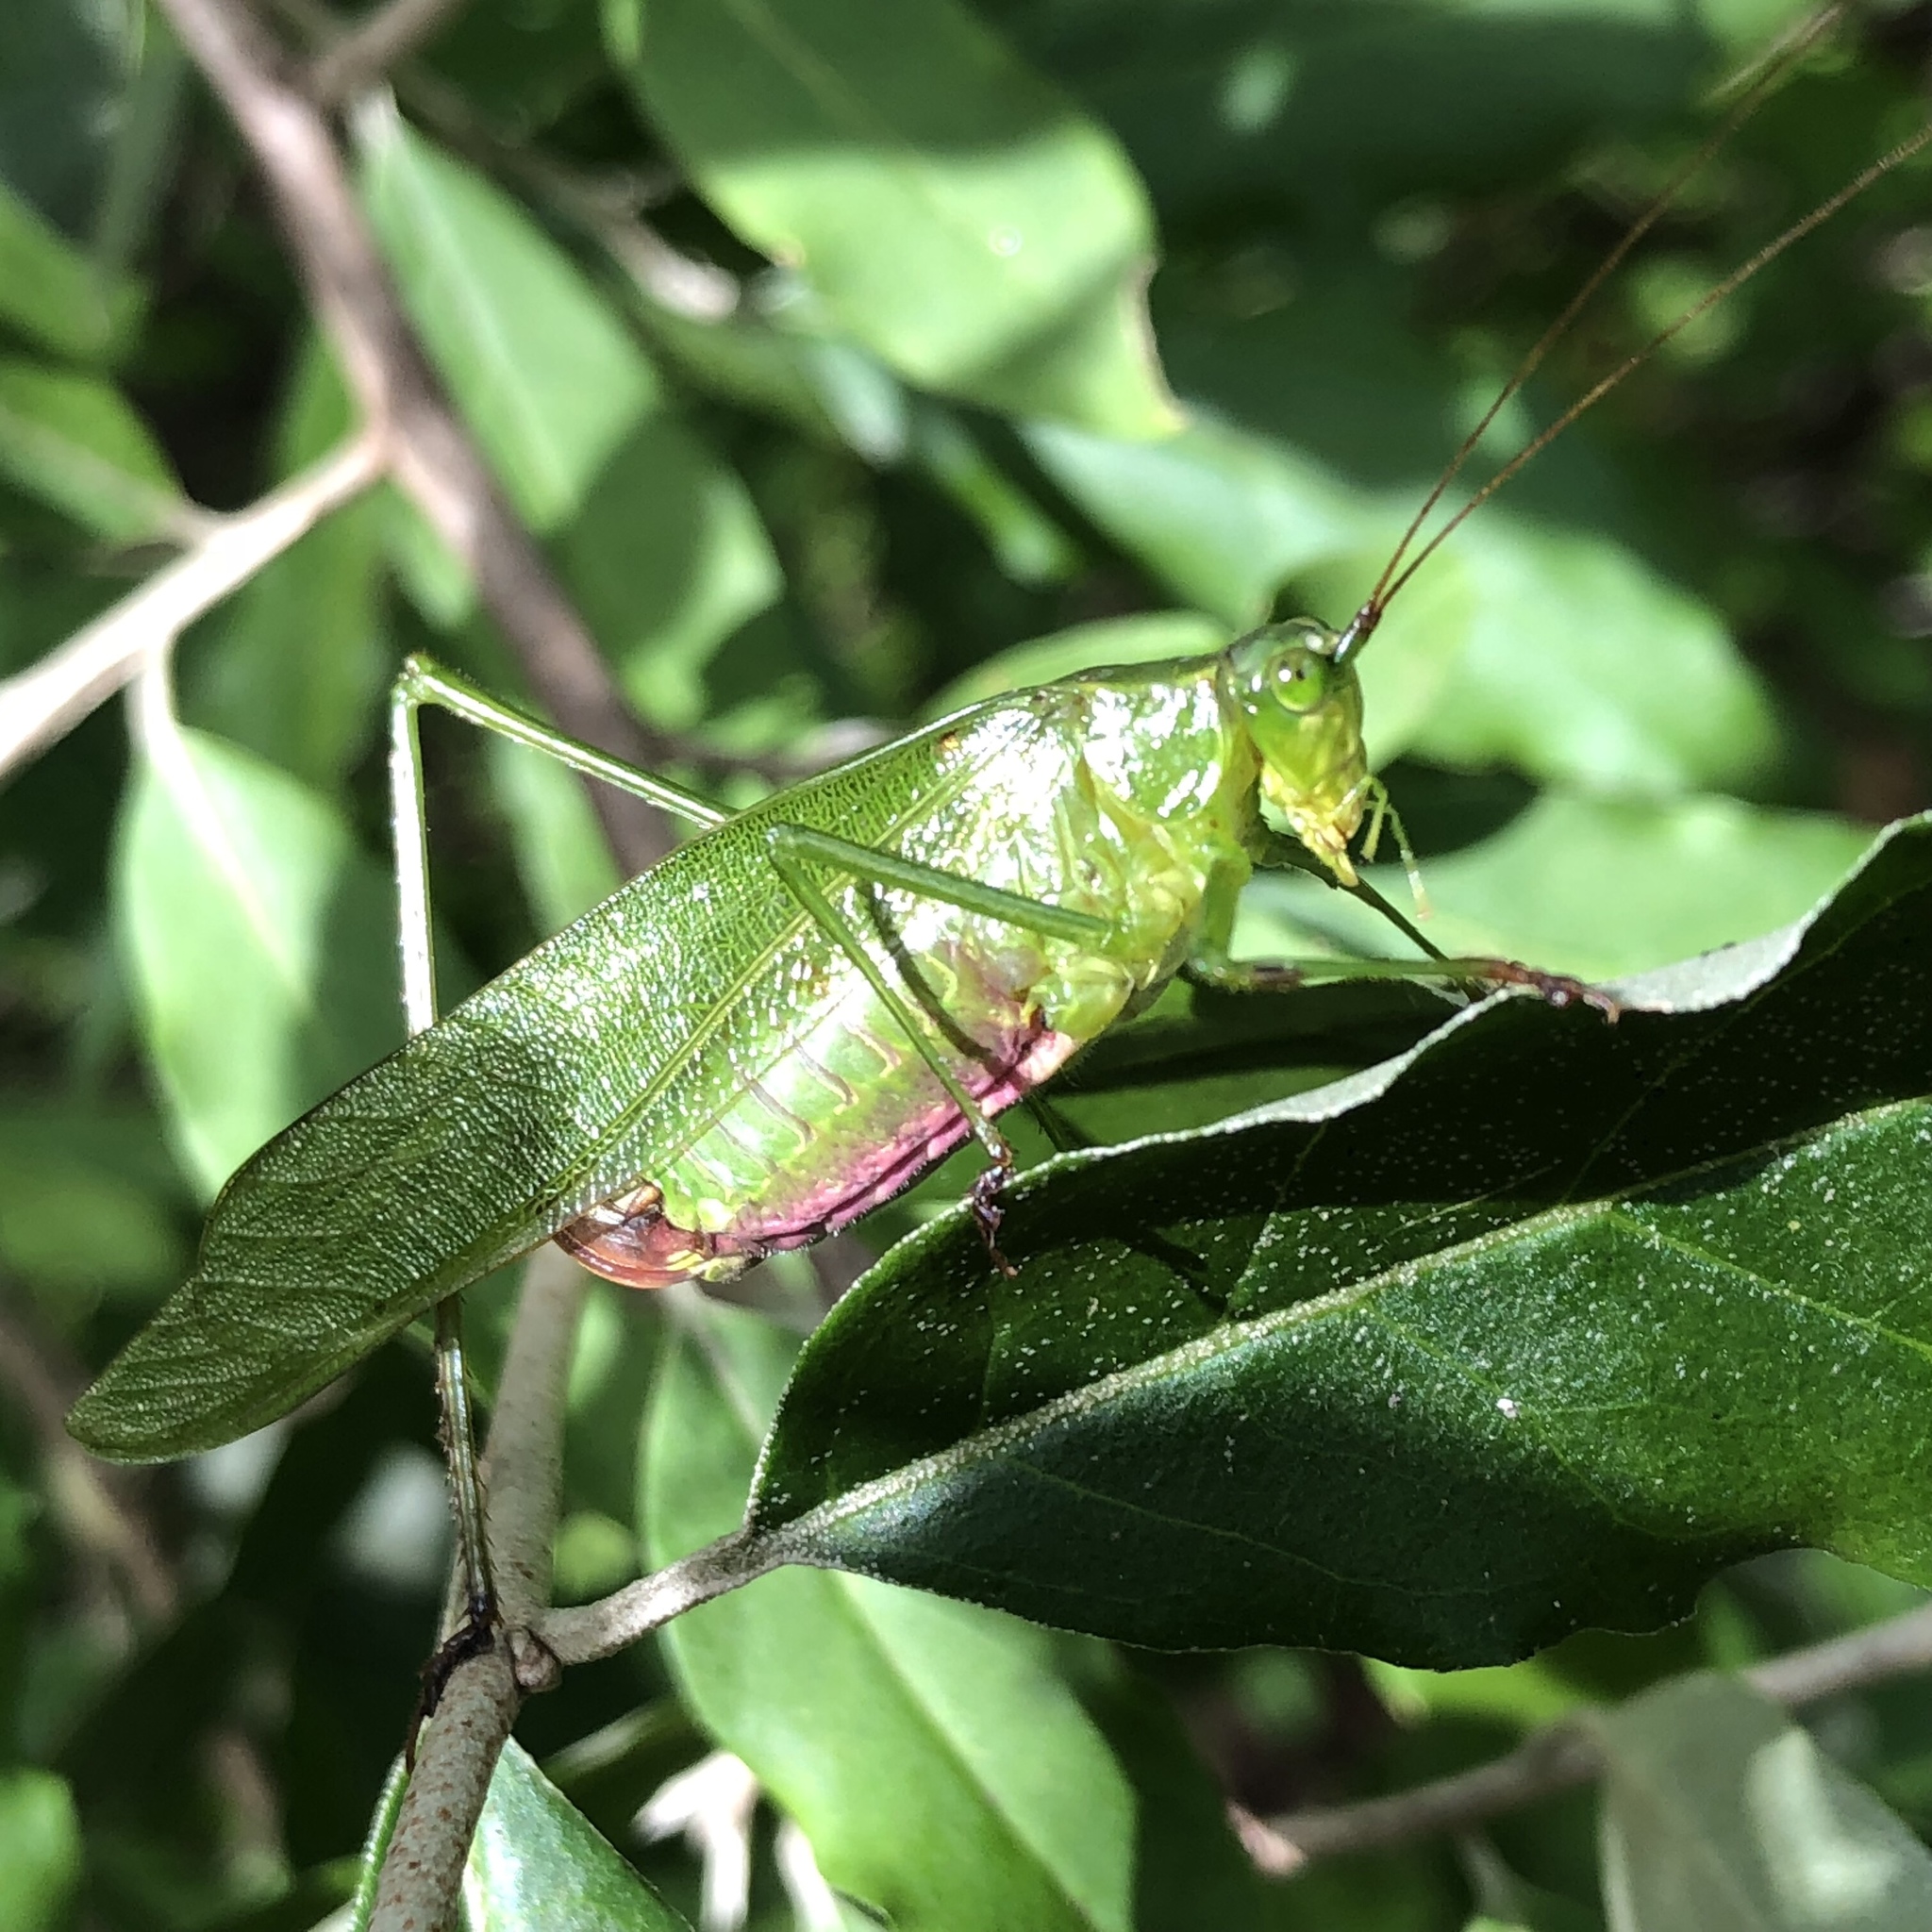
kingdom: Animalia
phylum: Arthropoda
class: Insecta
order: Orthoptera
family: Tettigoniidae
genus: Scudderia
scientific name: Scudderia furcata
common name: Fork-tailed bush katydid
